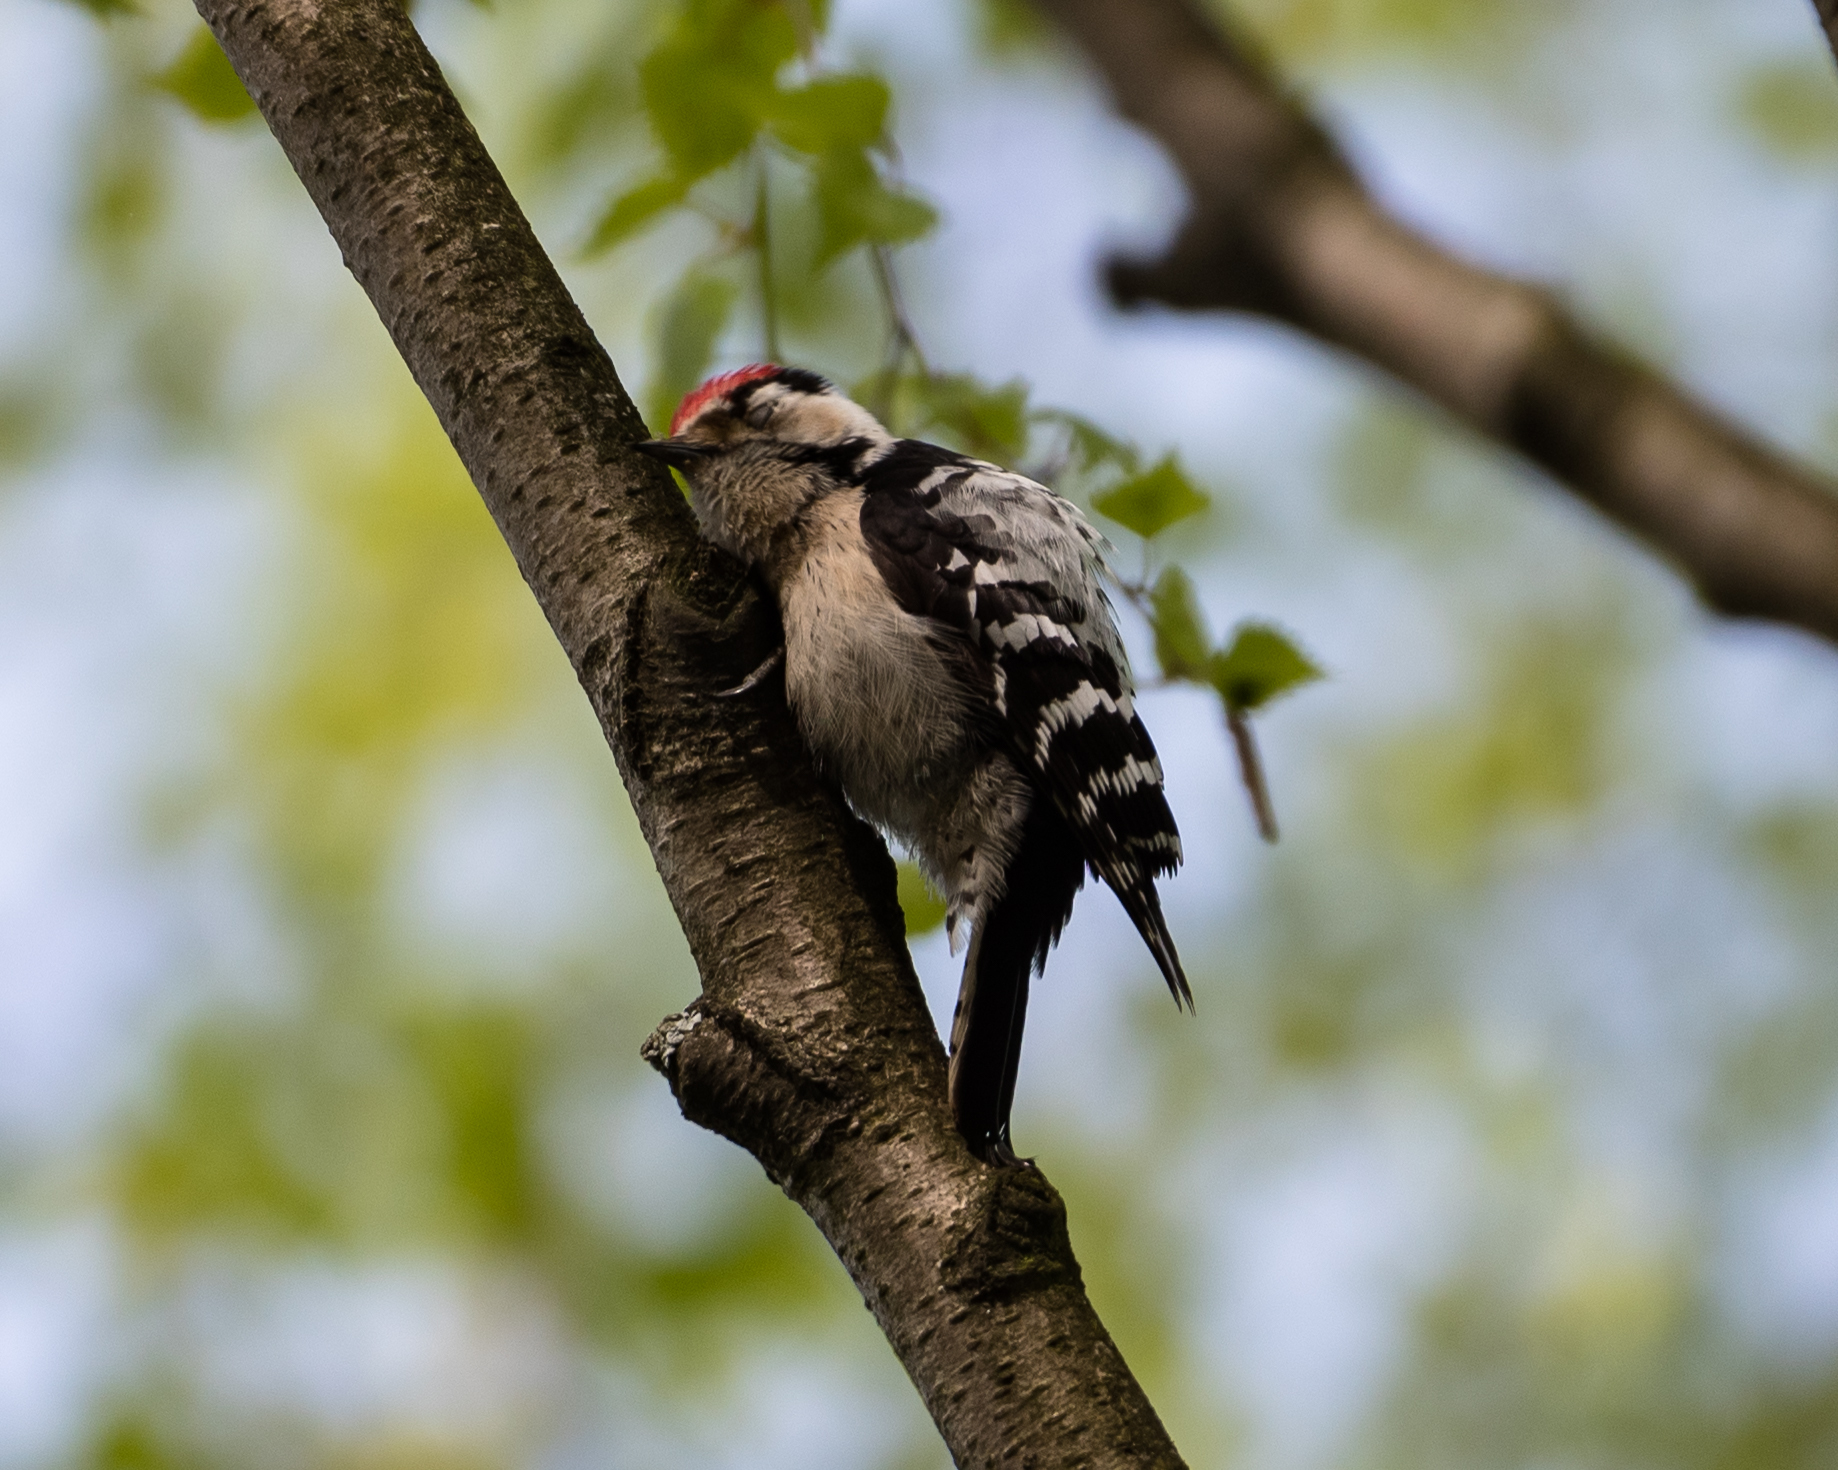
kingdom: Animalia
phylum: Chordata
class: Aves
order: Piciformes
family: Picidae
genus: Dryobates
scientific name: Dryobates minor
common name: Lesser spotted woodpecker
